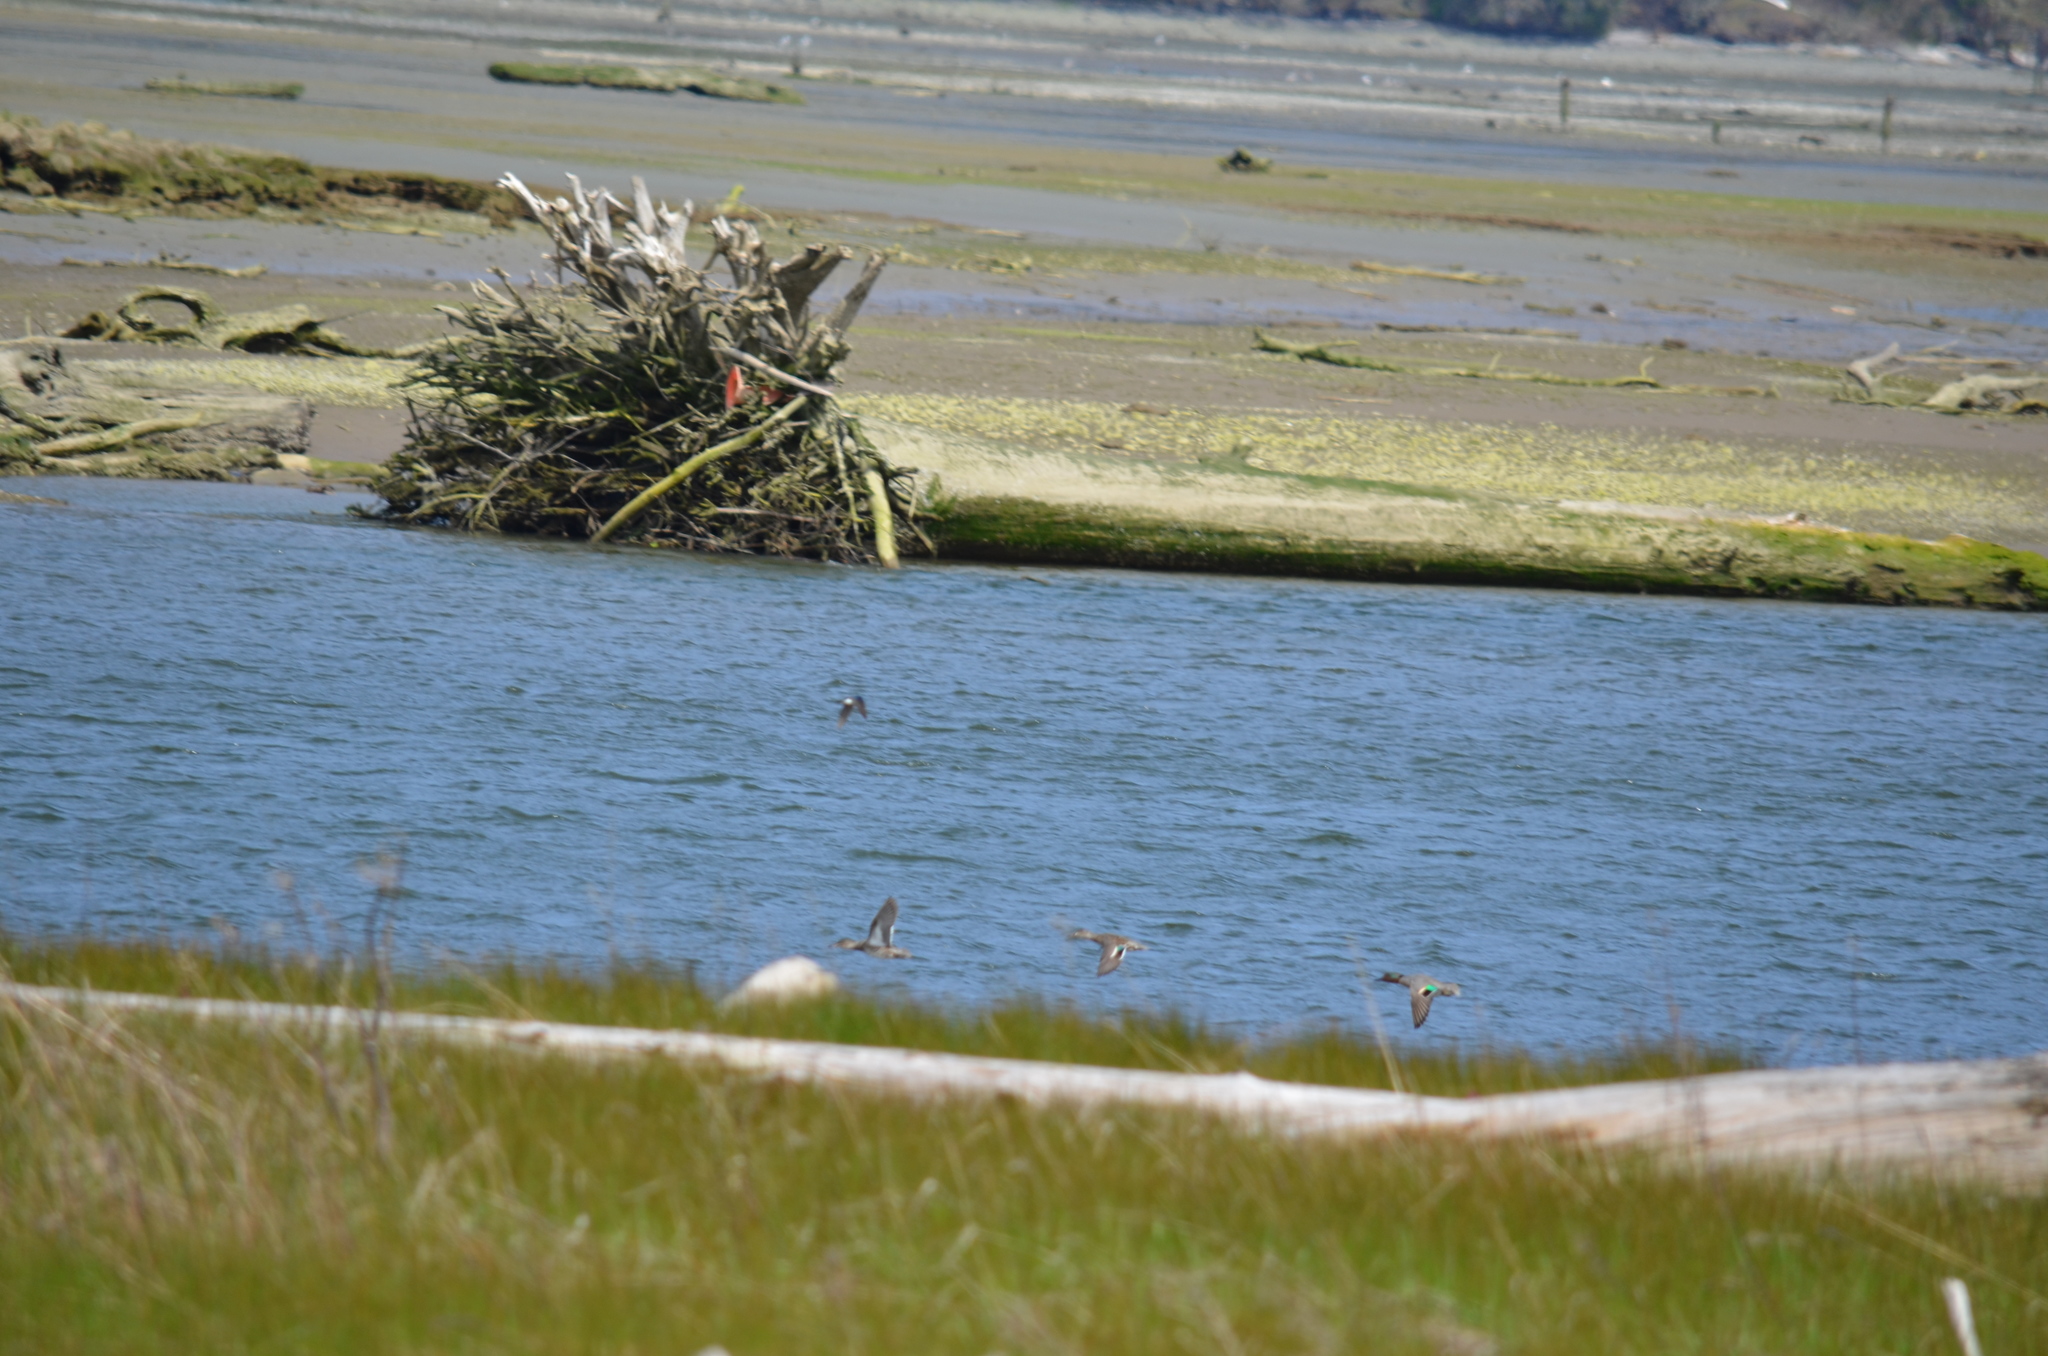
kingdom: Animalia
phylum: Chordata
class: Aves
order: Anseriformes
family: Anatidae
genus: Anas
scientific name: Anas crecca
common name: Eurasian teal
